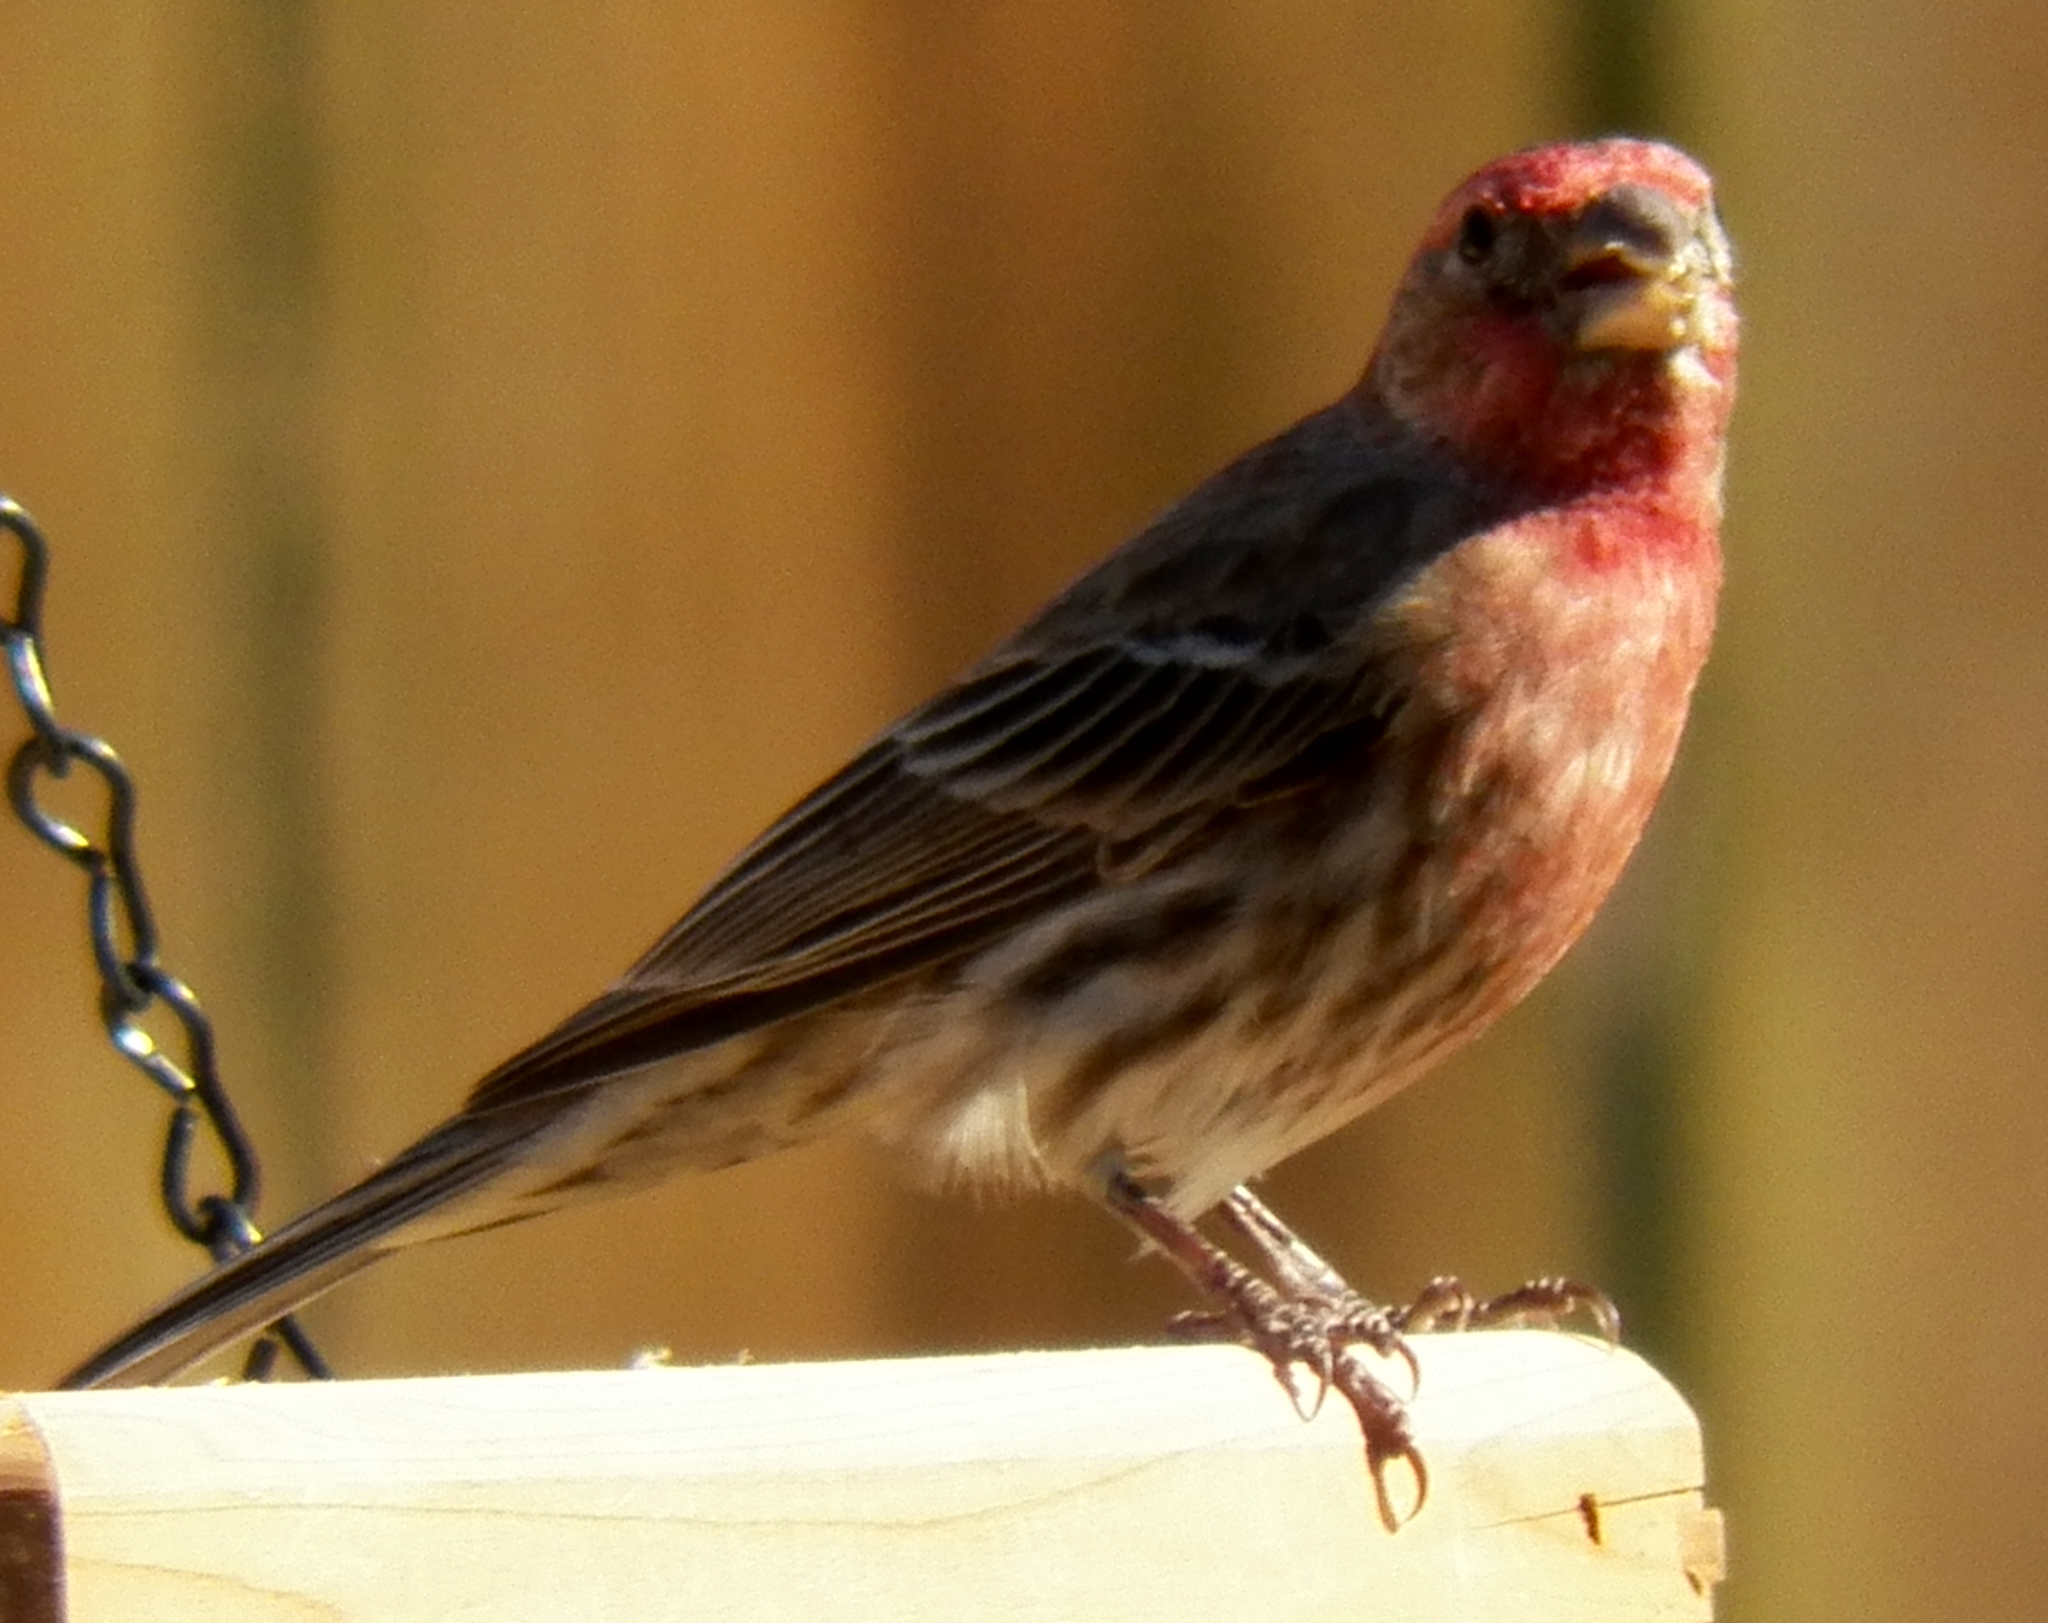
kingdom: Animalia
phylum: Chordata
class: Aves
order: Passeriformes
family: Fringillidae
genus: Haemorhous
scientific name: Haemorhous mexicanus
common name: House finch
